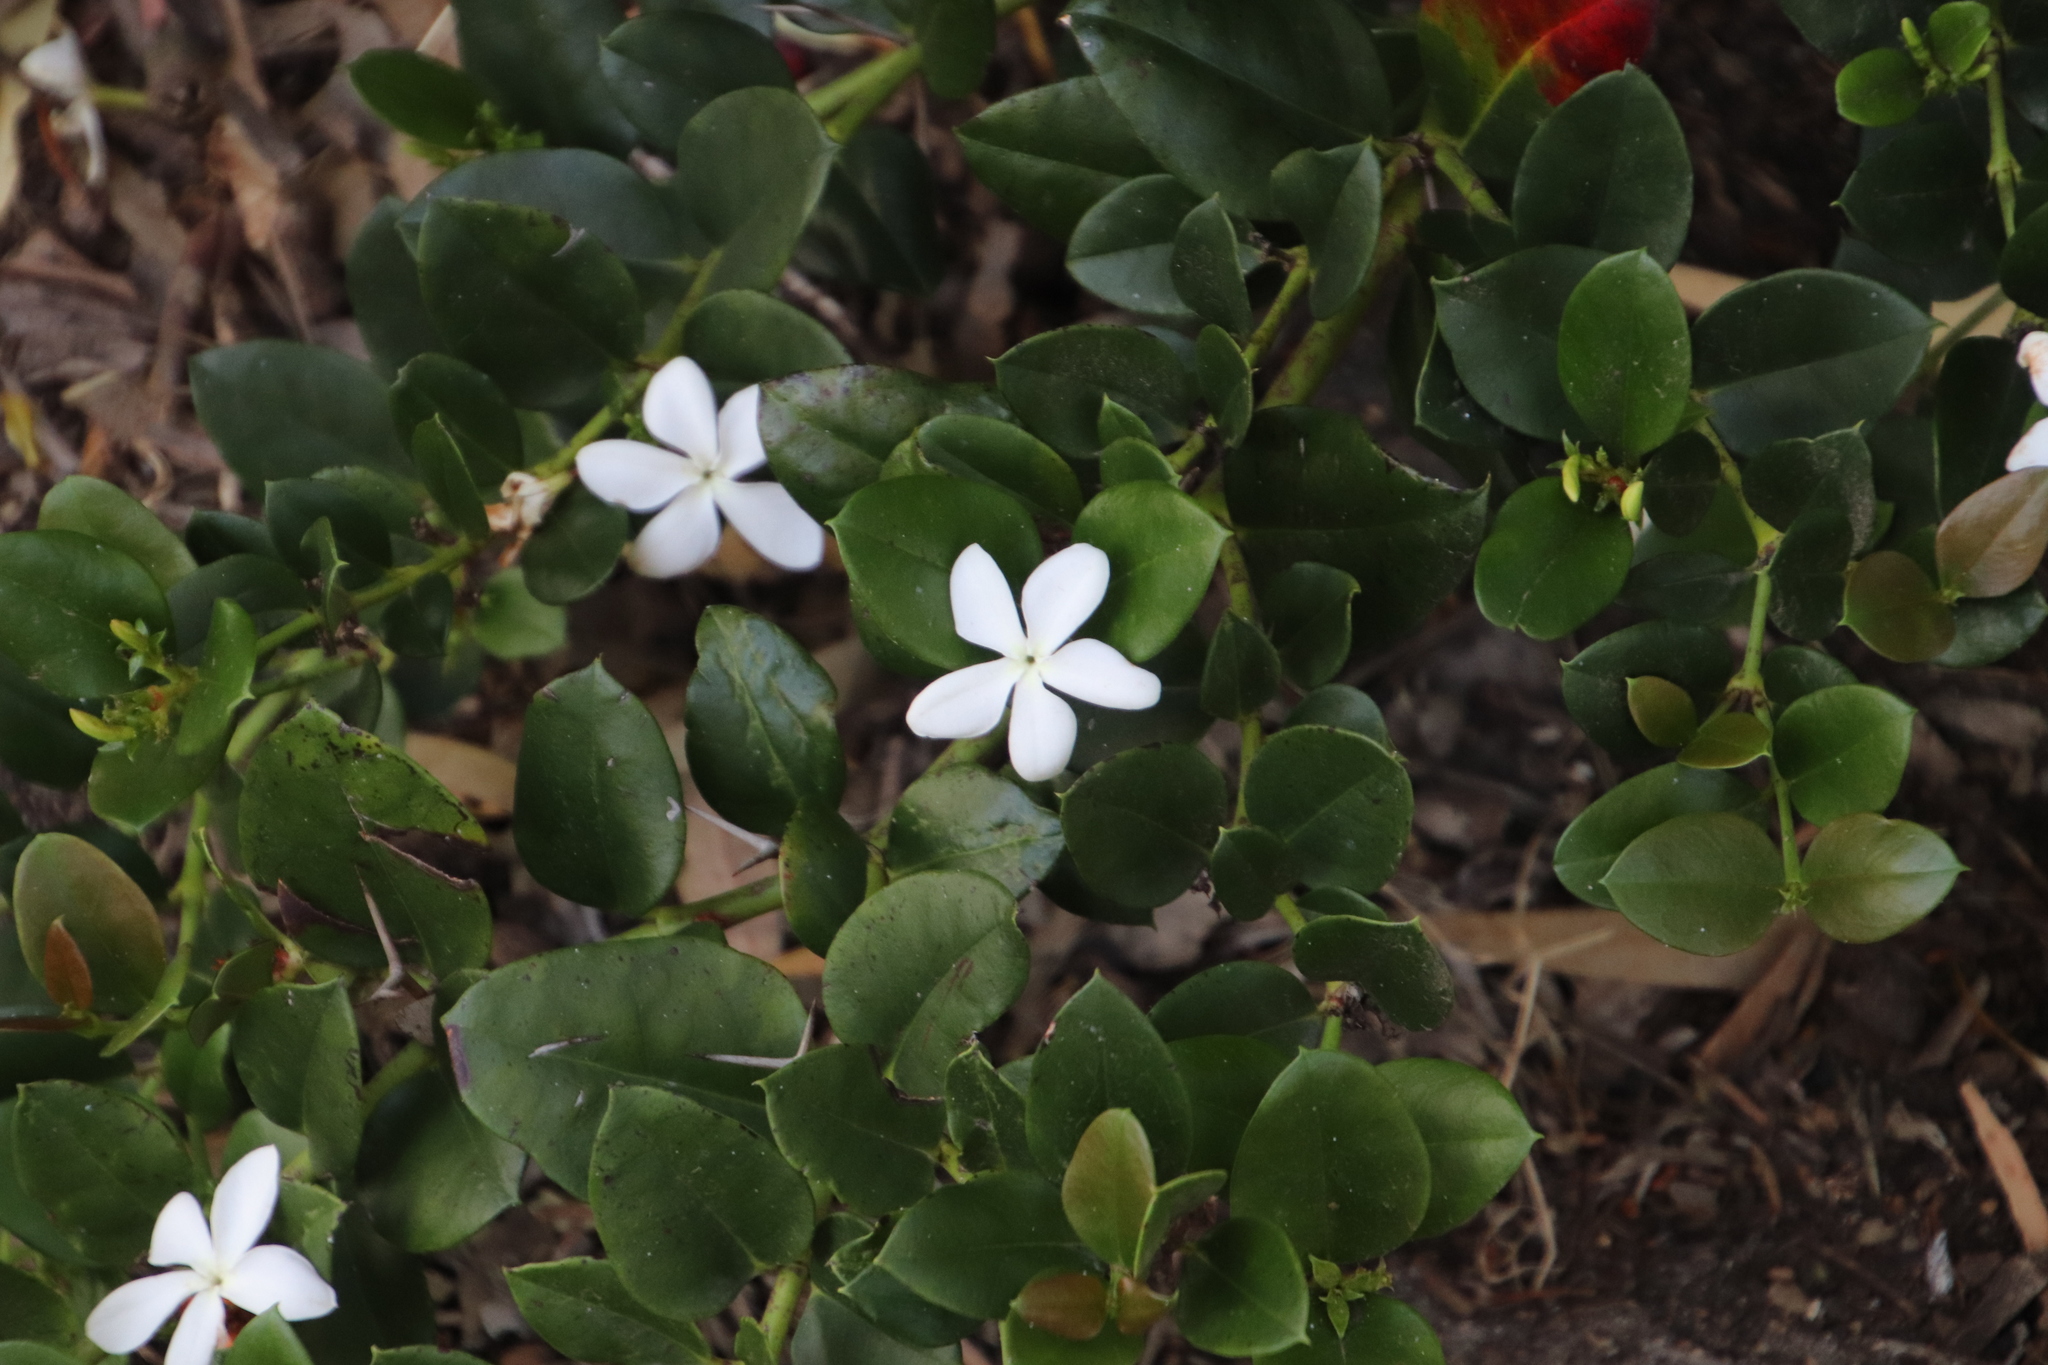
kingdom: Plantae
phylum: Tracheophyta
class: Magnoliopsida
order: Gentianales
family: Apocynaceae
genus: Carissa
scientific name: Carissa macrocarpa
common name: Natal plum
